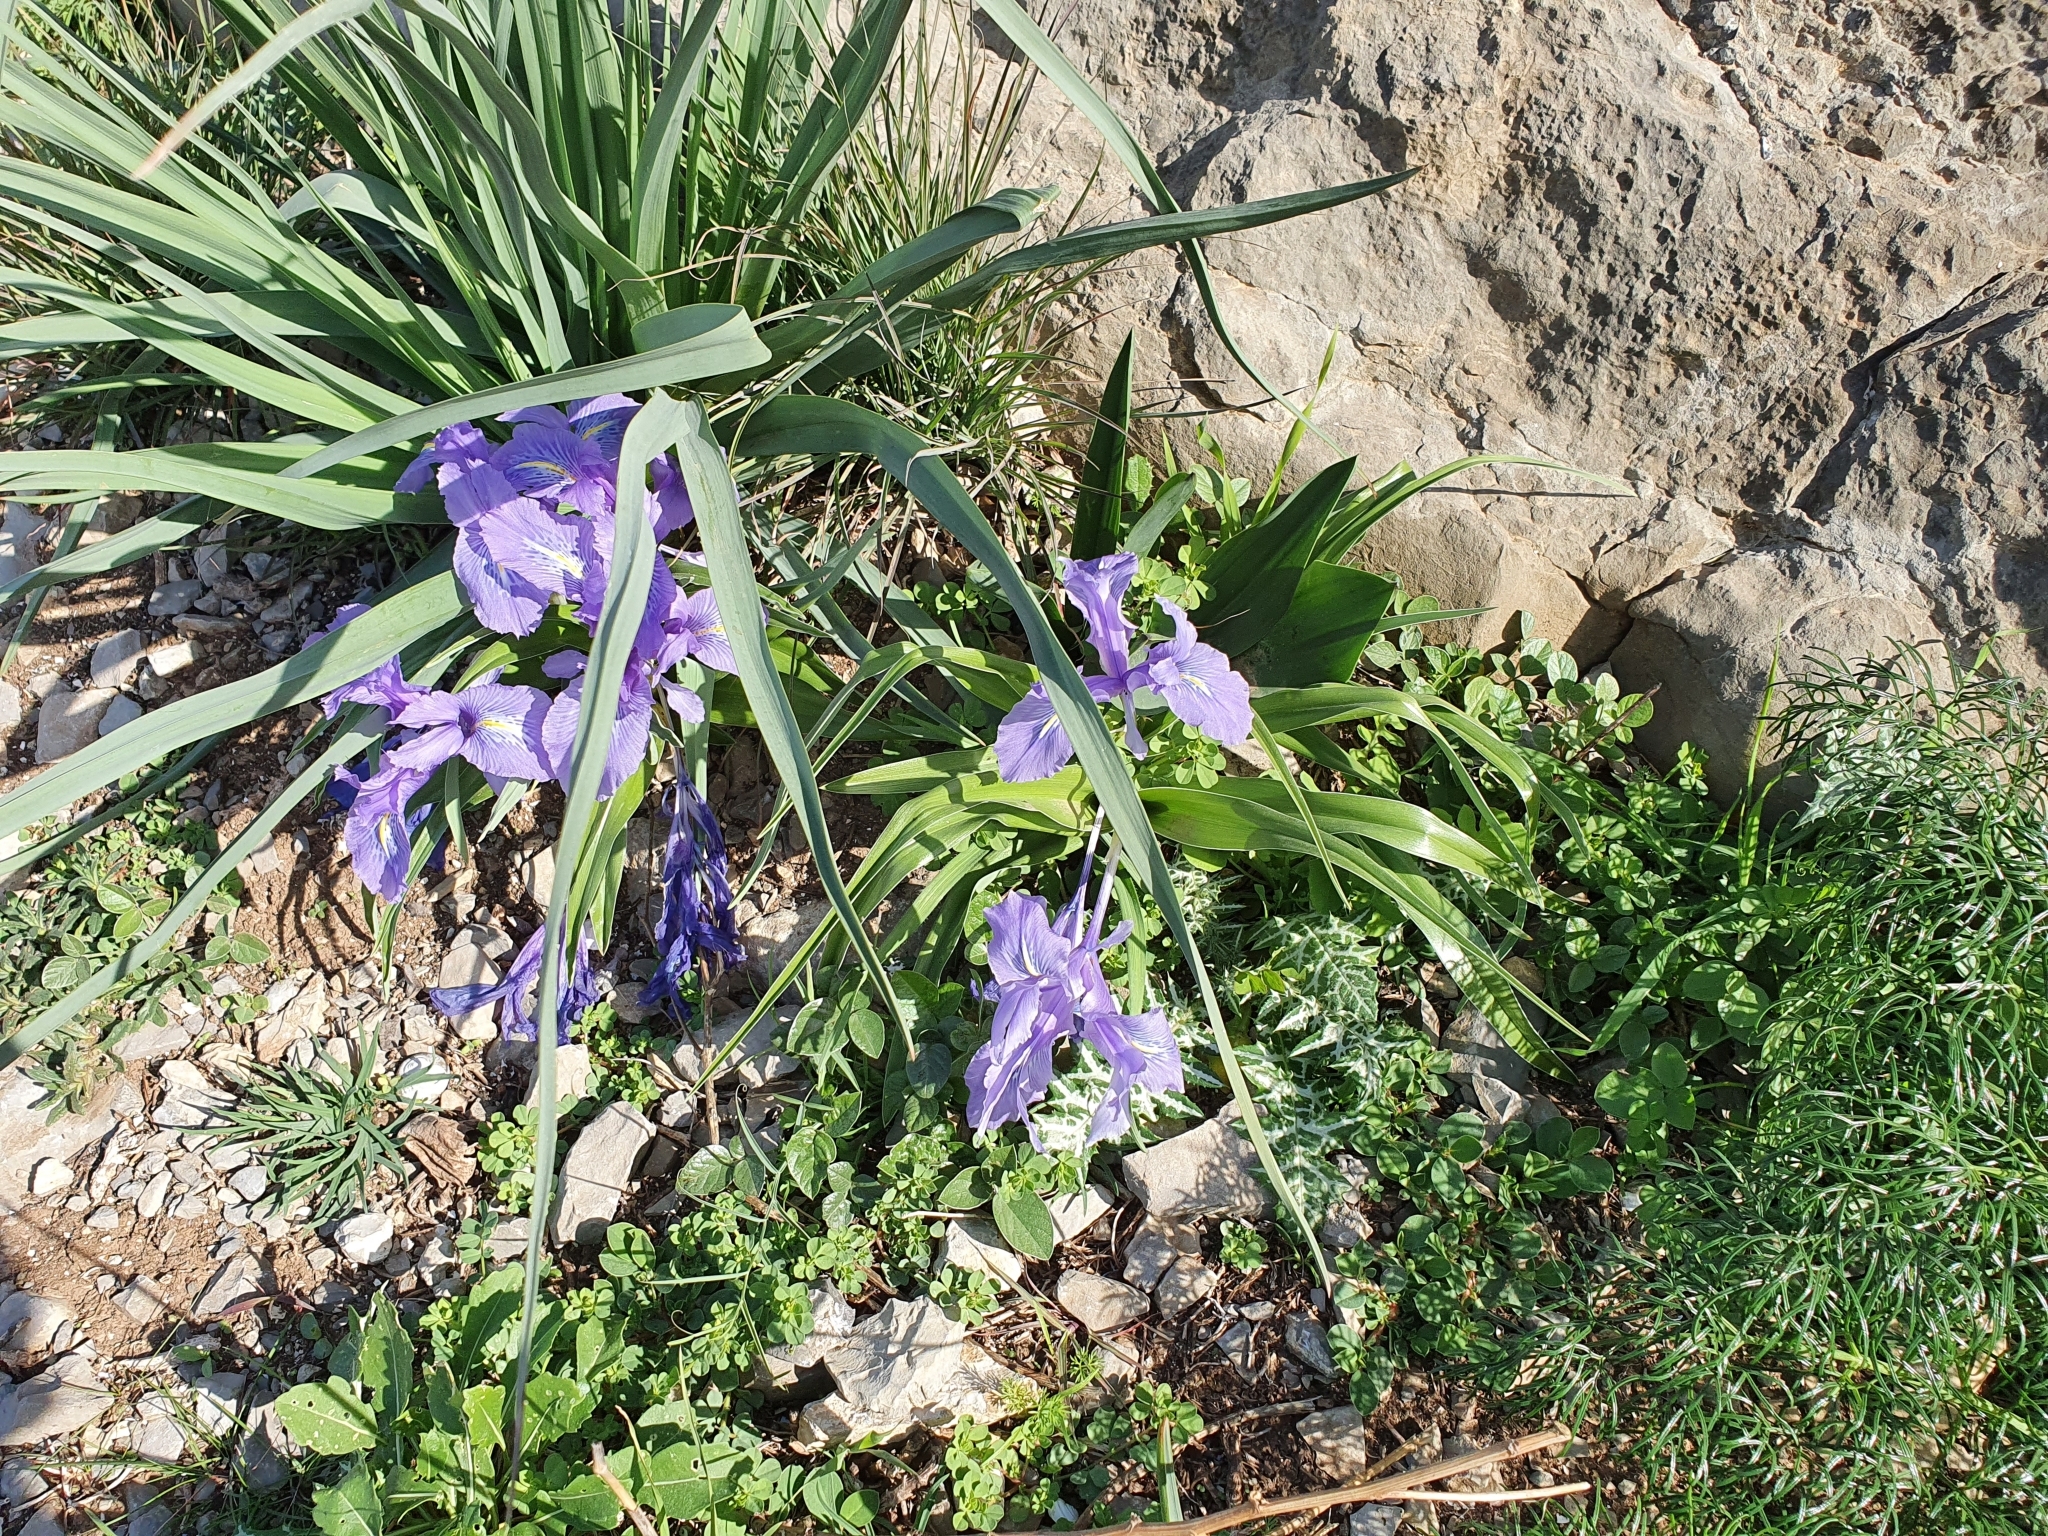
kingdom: Plantae
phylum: Tracheophyta
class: Liliopsida
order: Asparagales
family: Iridaceae
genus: Iris
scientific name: Iris planifolia
